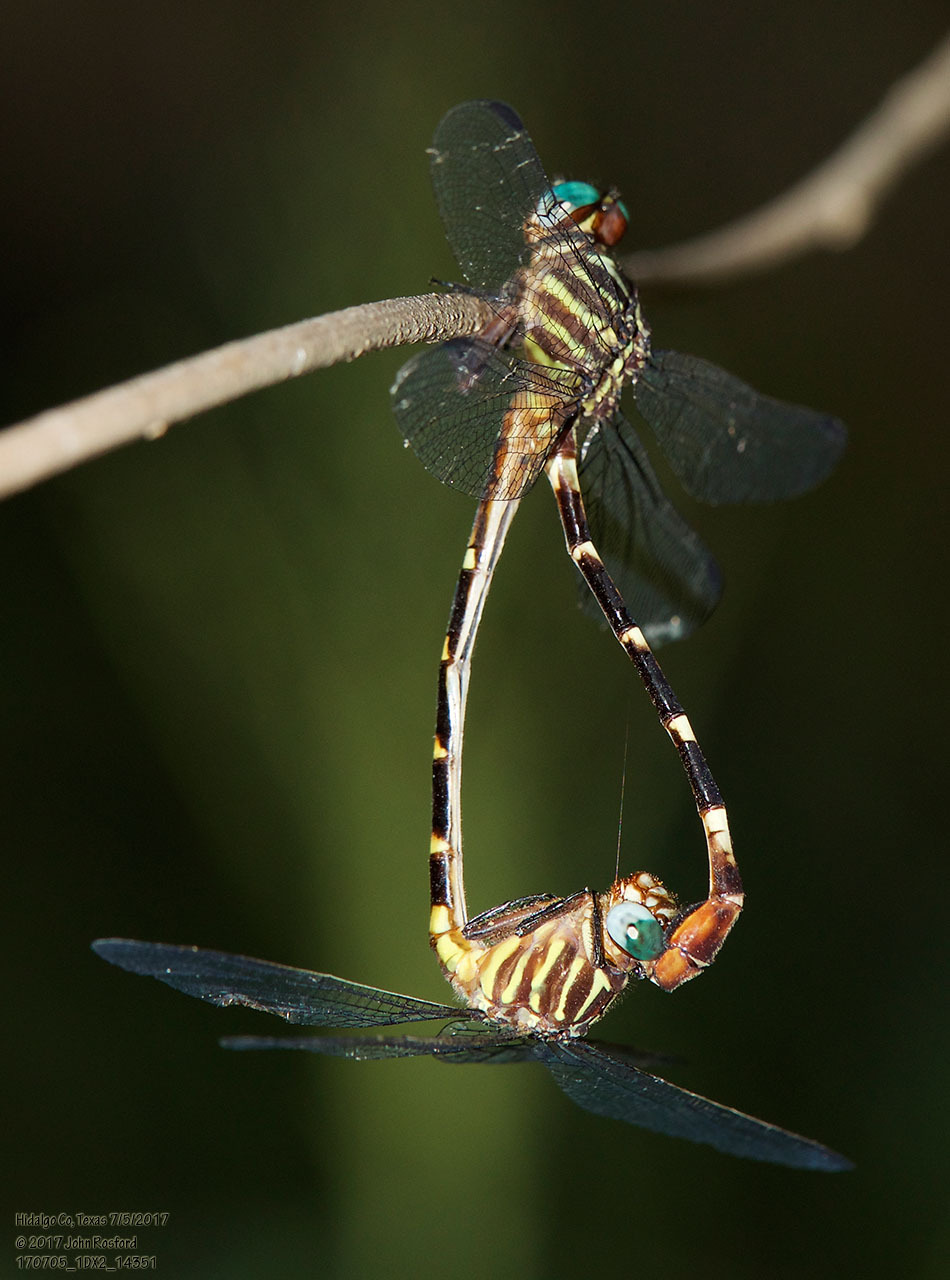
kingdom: Animalia
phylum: Arthropoda
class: Insecta
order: Odonata
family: Gomphidae
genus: Phyllocycla
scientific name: Phyllocycla breviphylla
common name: Ringed forceptail
